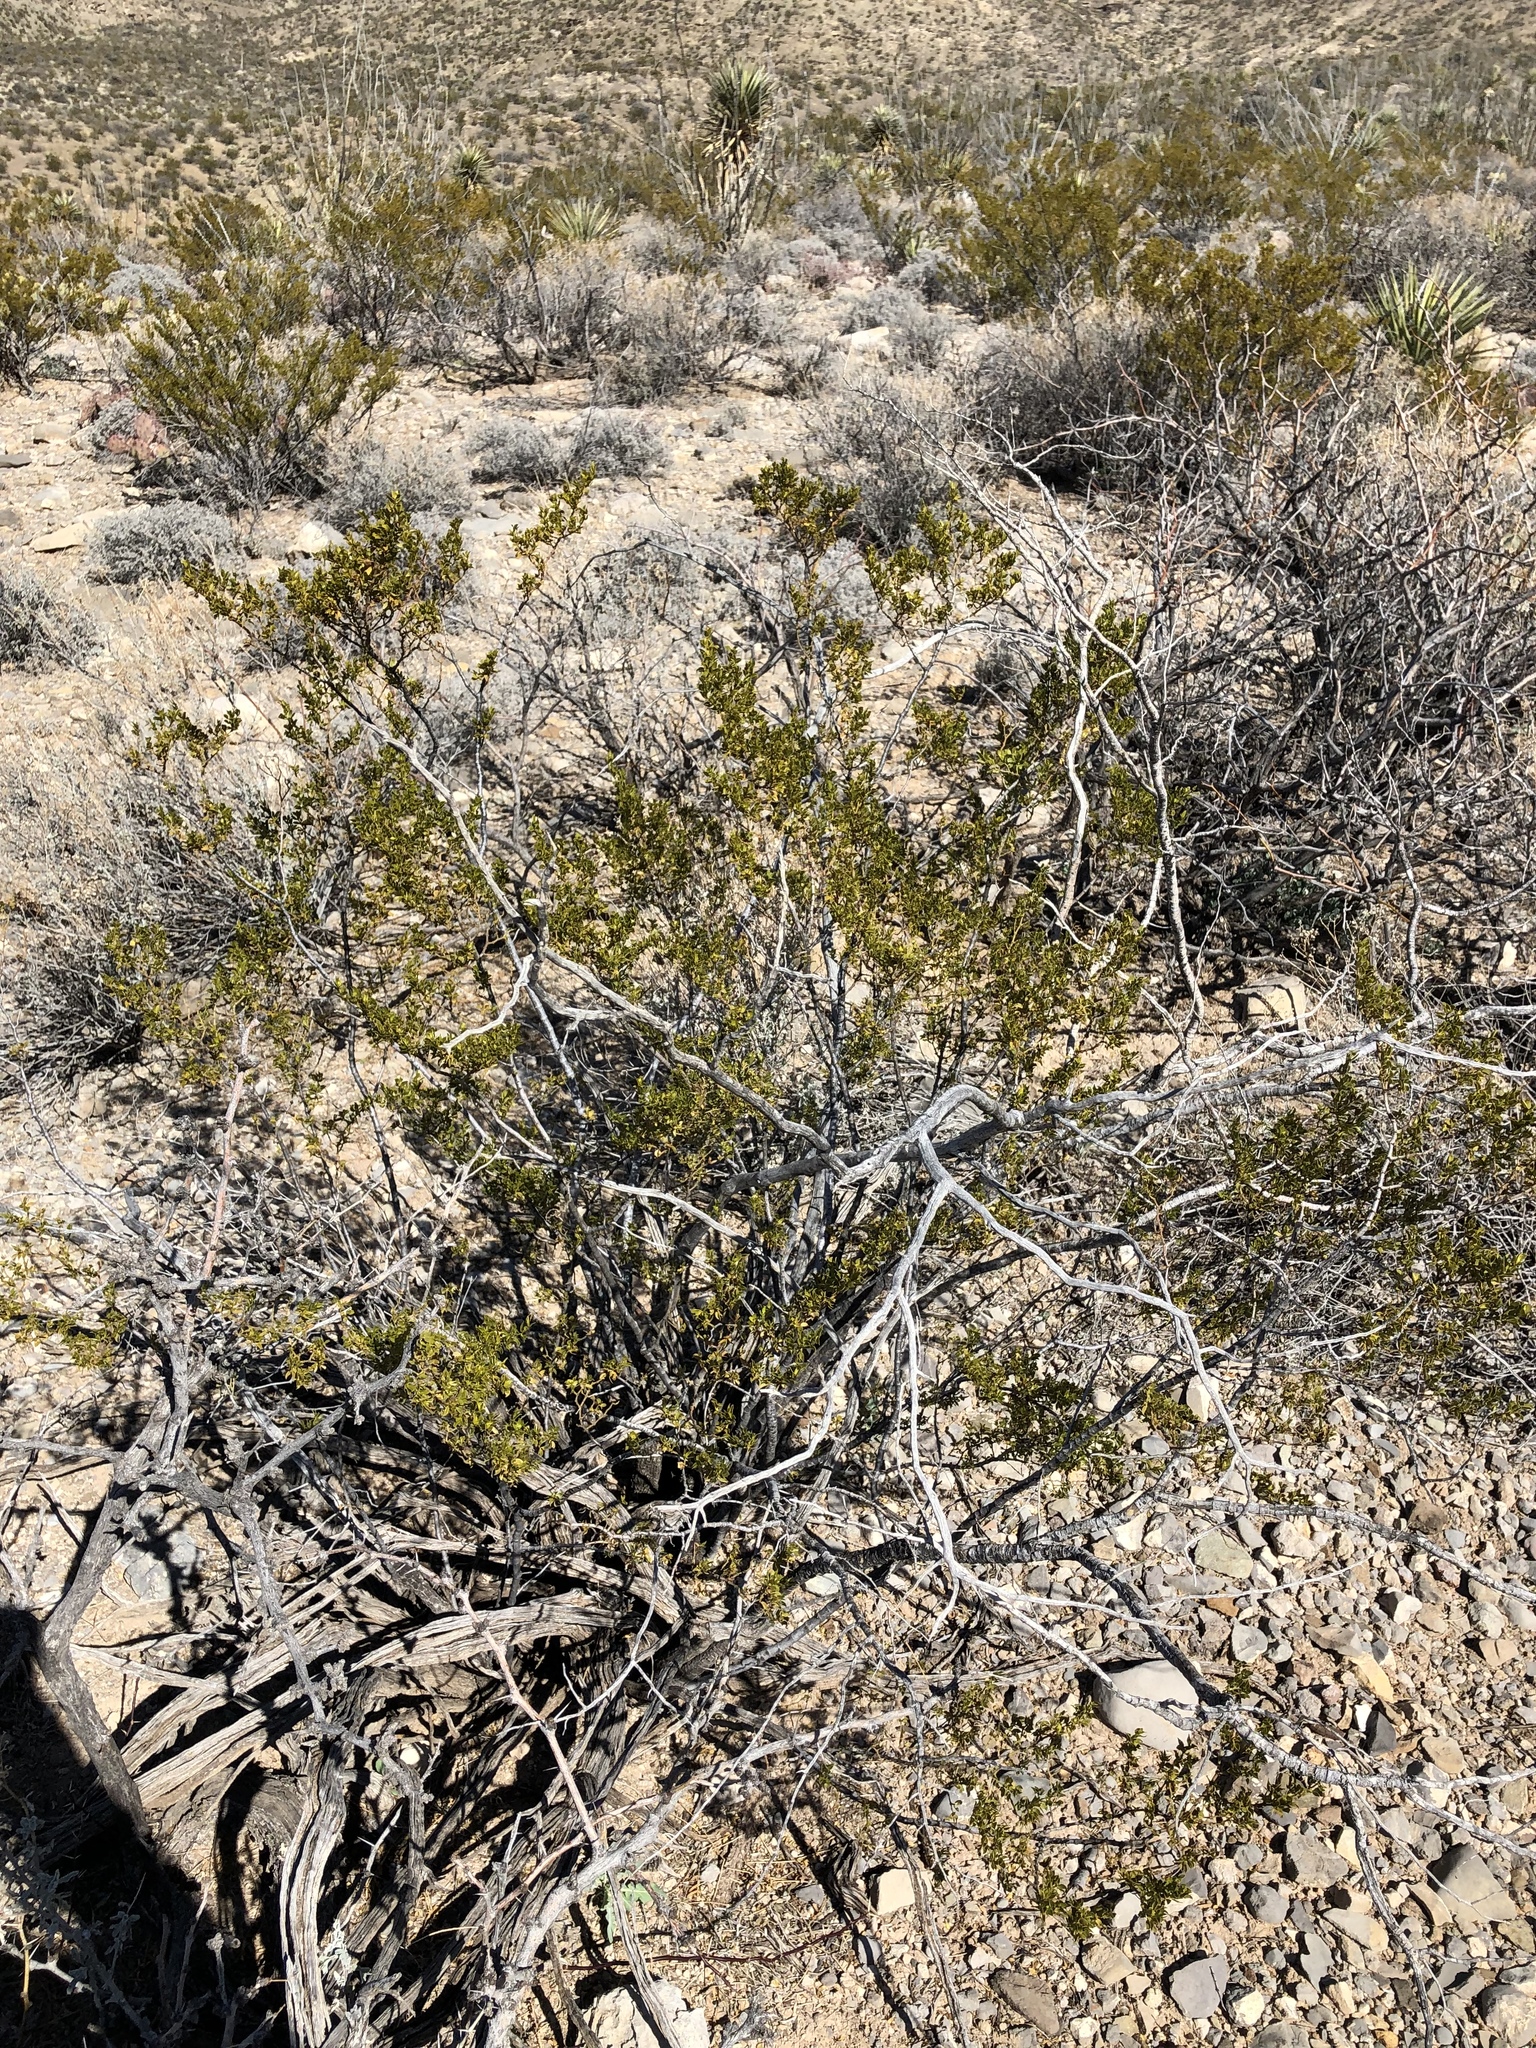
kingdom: Plantae
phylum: Tracheophyta
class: Magnoliopsida
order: Zygophyllales
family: Zygophyllaceae
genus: Larrea
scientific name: Larrea tridentata
